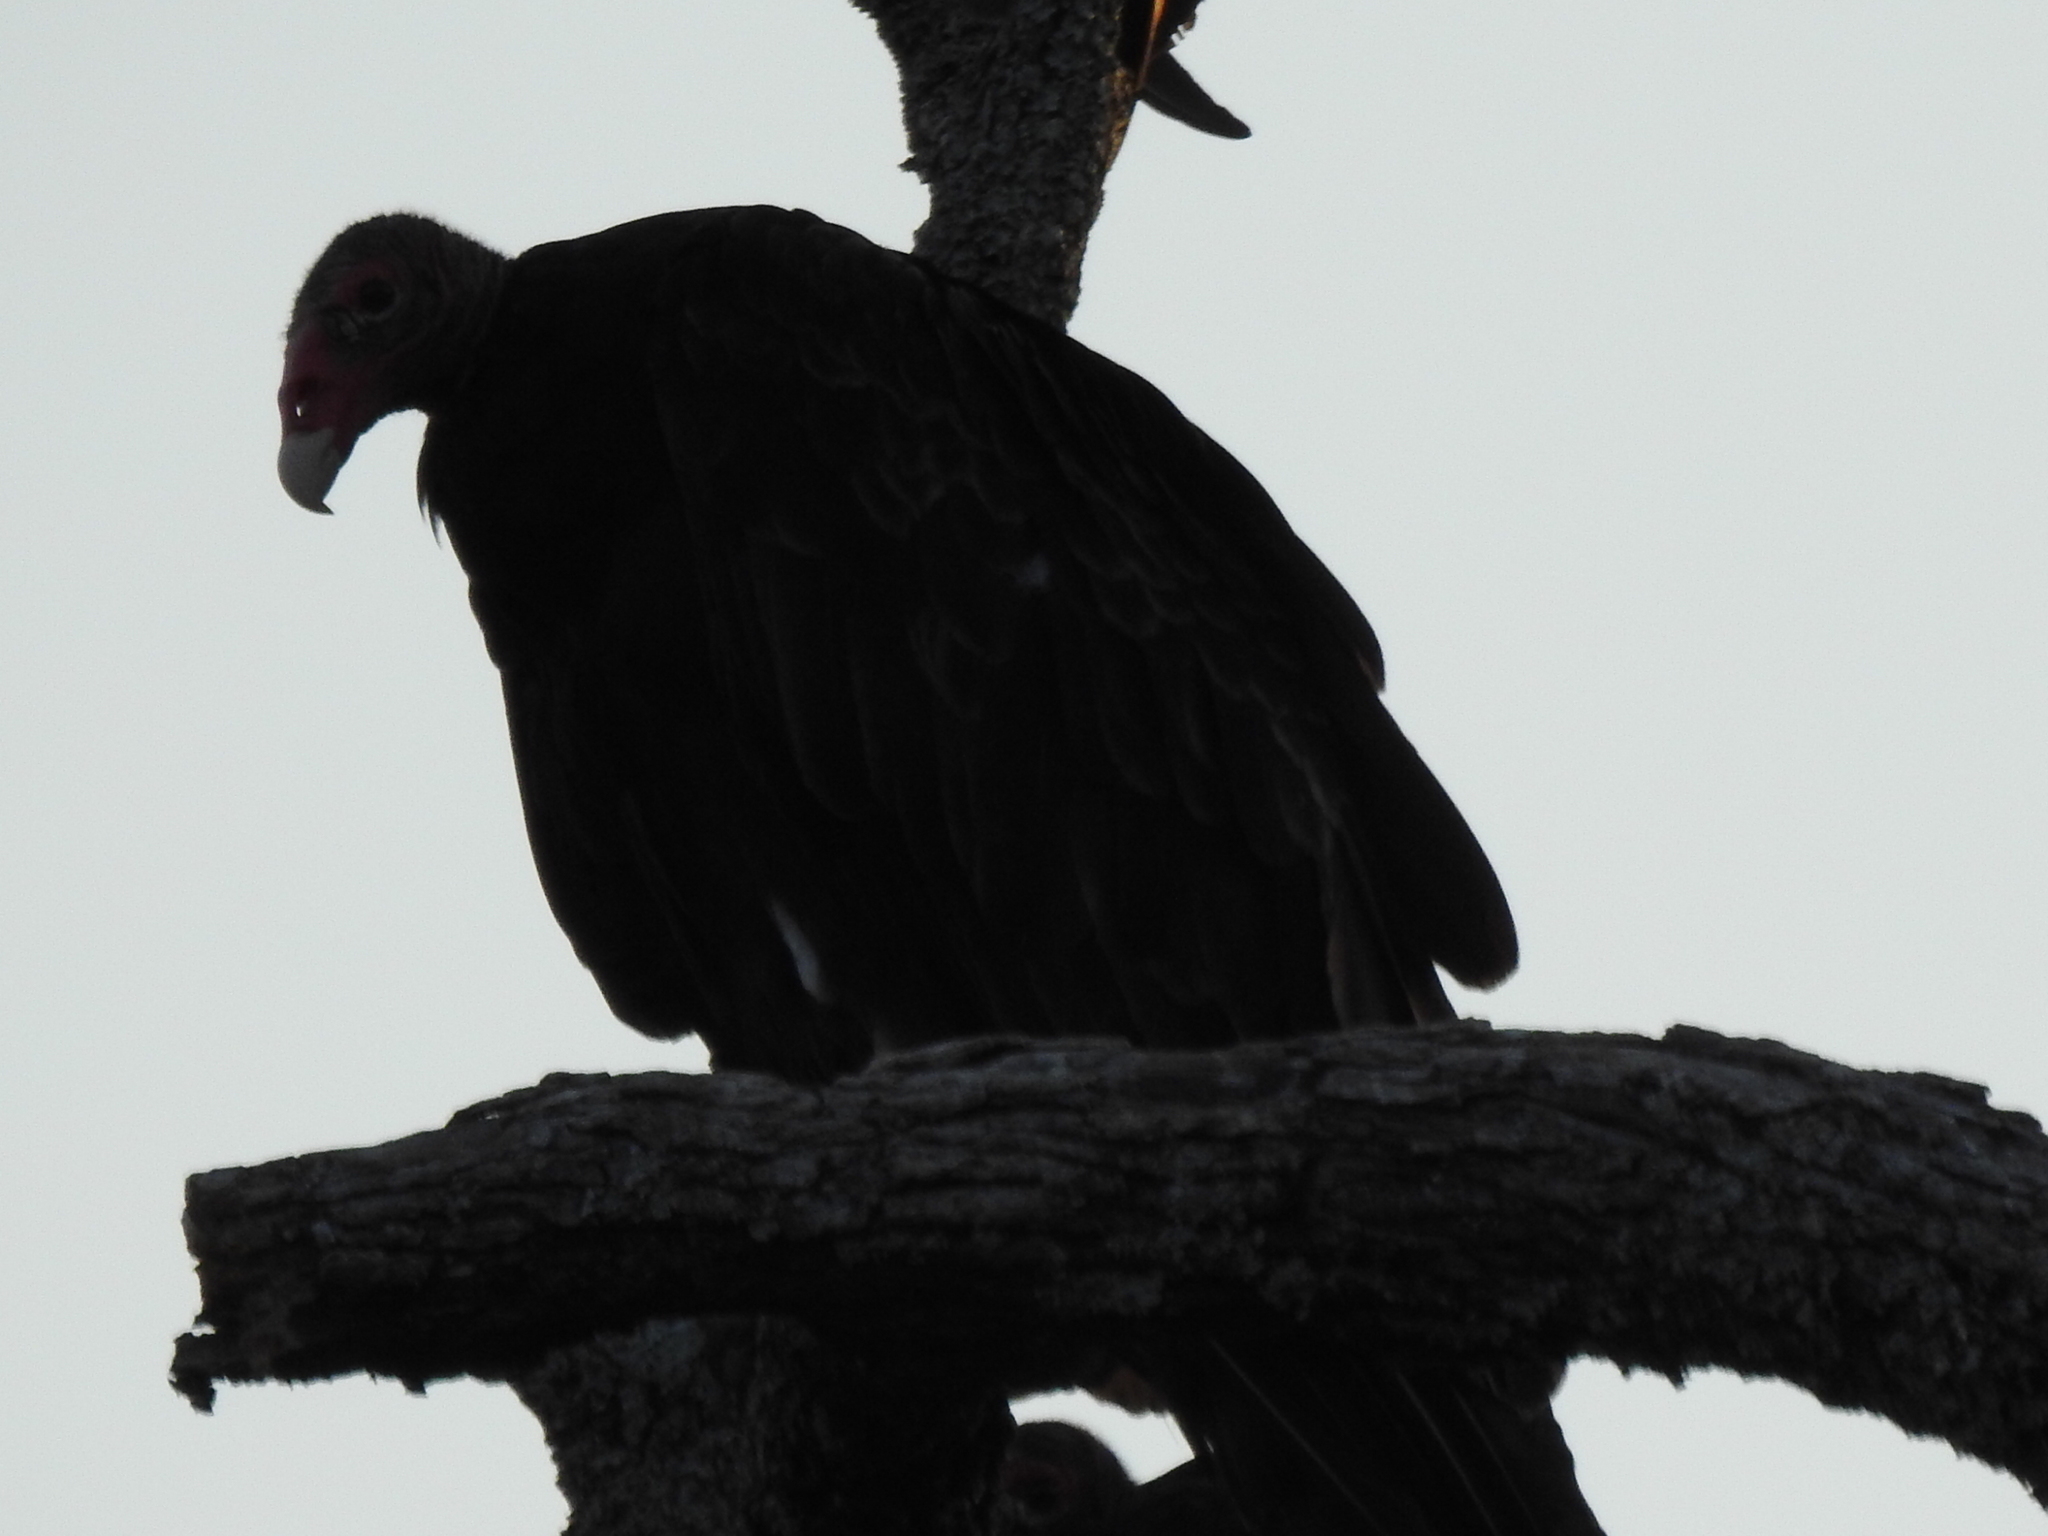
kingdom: Animalia
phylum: Chordata
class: Aves
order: Accipitriformes
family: Cathartidae
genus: Cathartes
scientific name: Cathartes aura
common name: Turkey vulture
